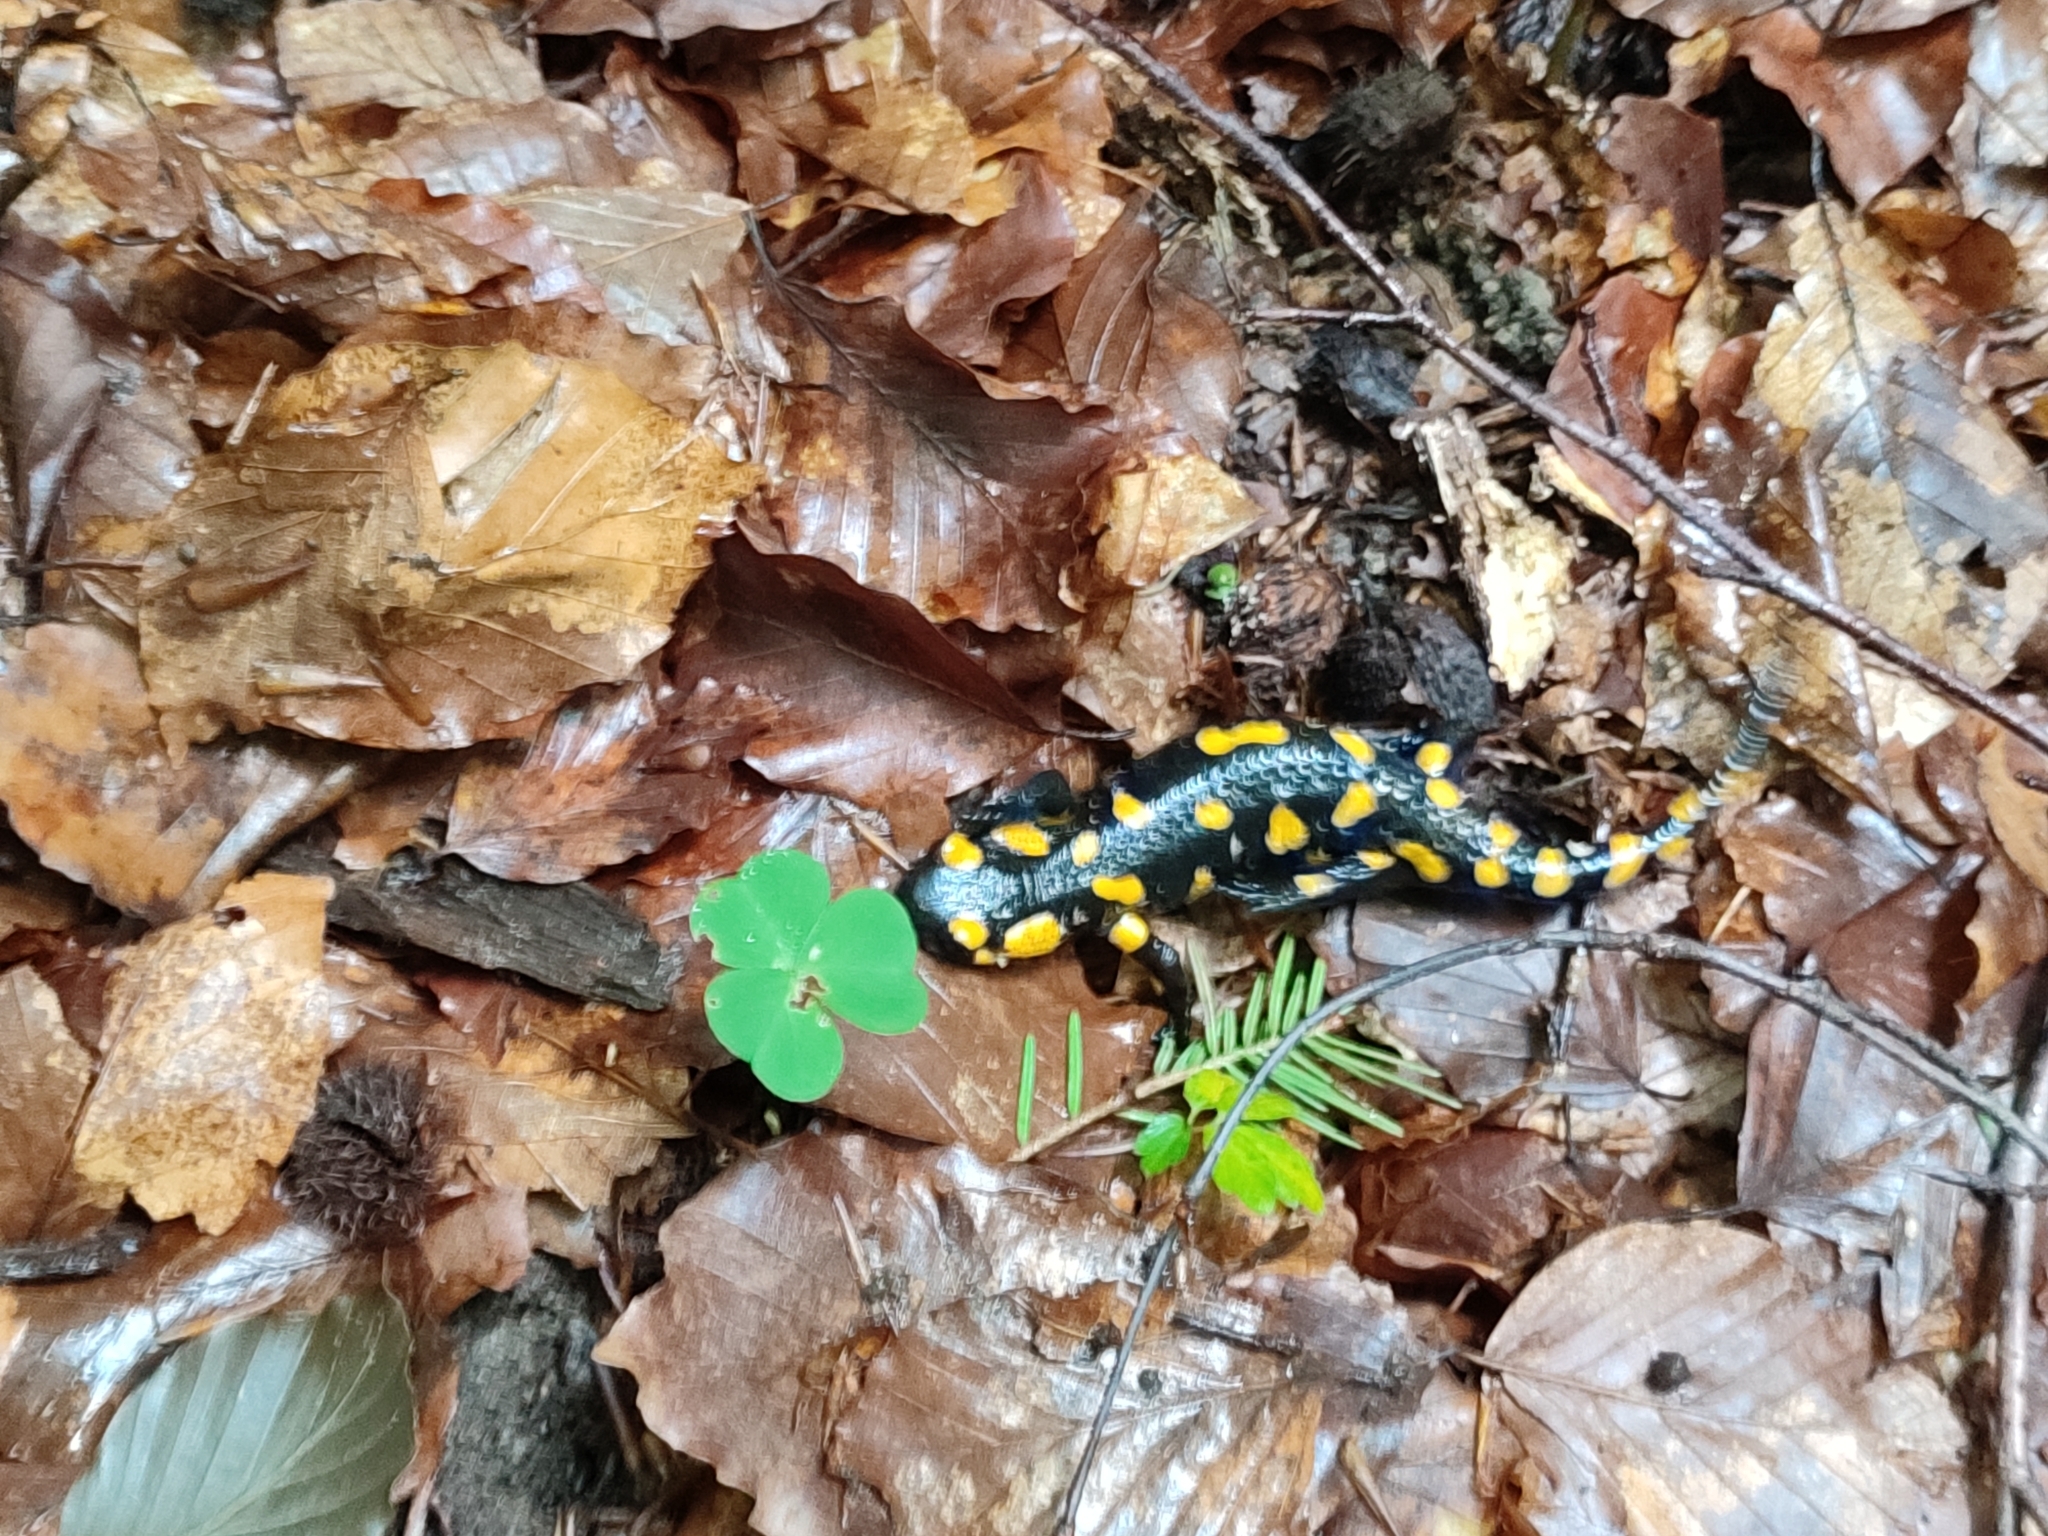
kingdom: Animalia
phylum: Chordata
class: Amphibia
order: Caudata
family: Salamandridae
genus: Salamandra
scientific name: Salamandra salamandra
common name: Fire salamander
